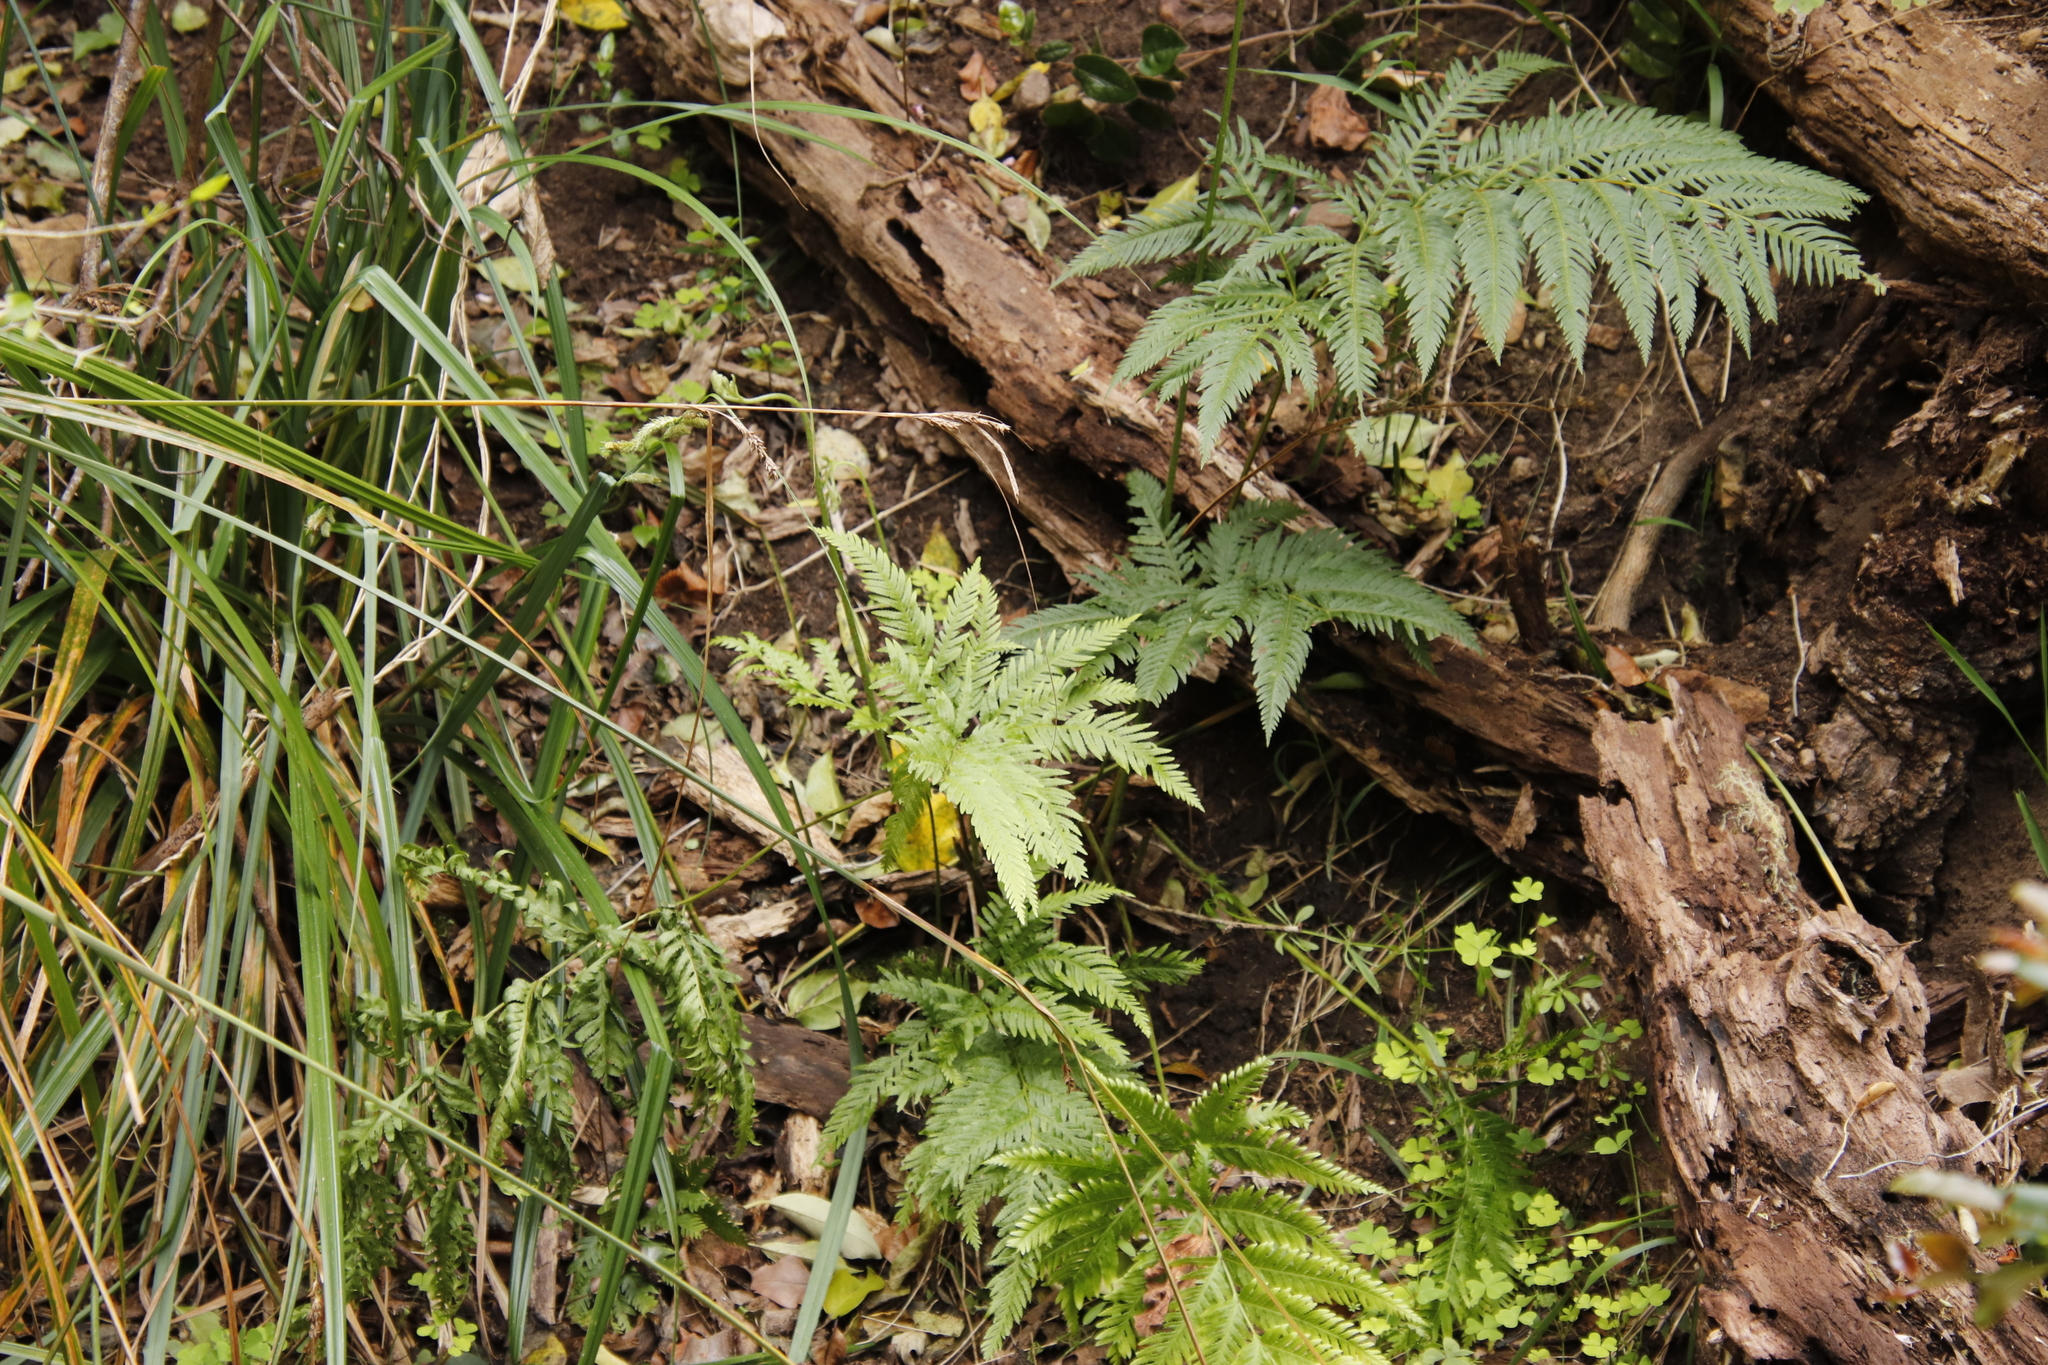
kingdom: Plantae
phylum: Tracheophyta
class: Polypodiopsida
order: Polypodiales
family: Pteridaceae
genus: Pteris
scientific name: Pteris dentata
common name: Toothed brake
